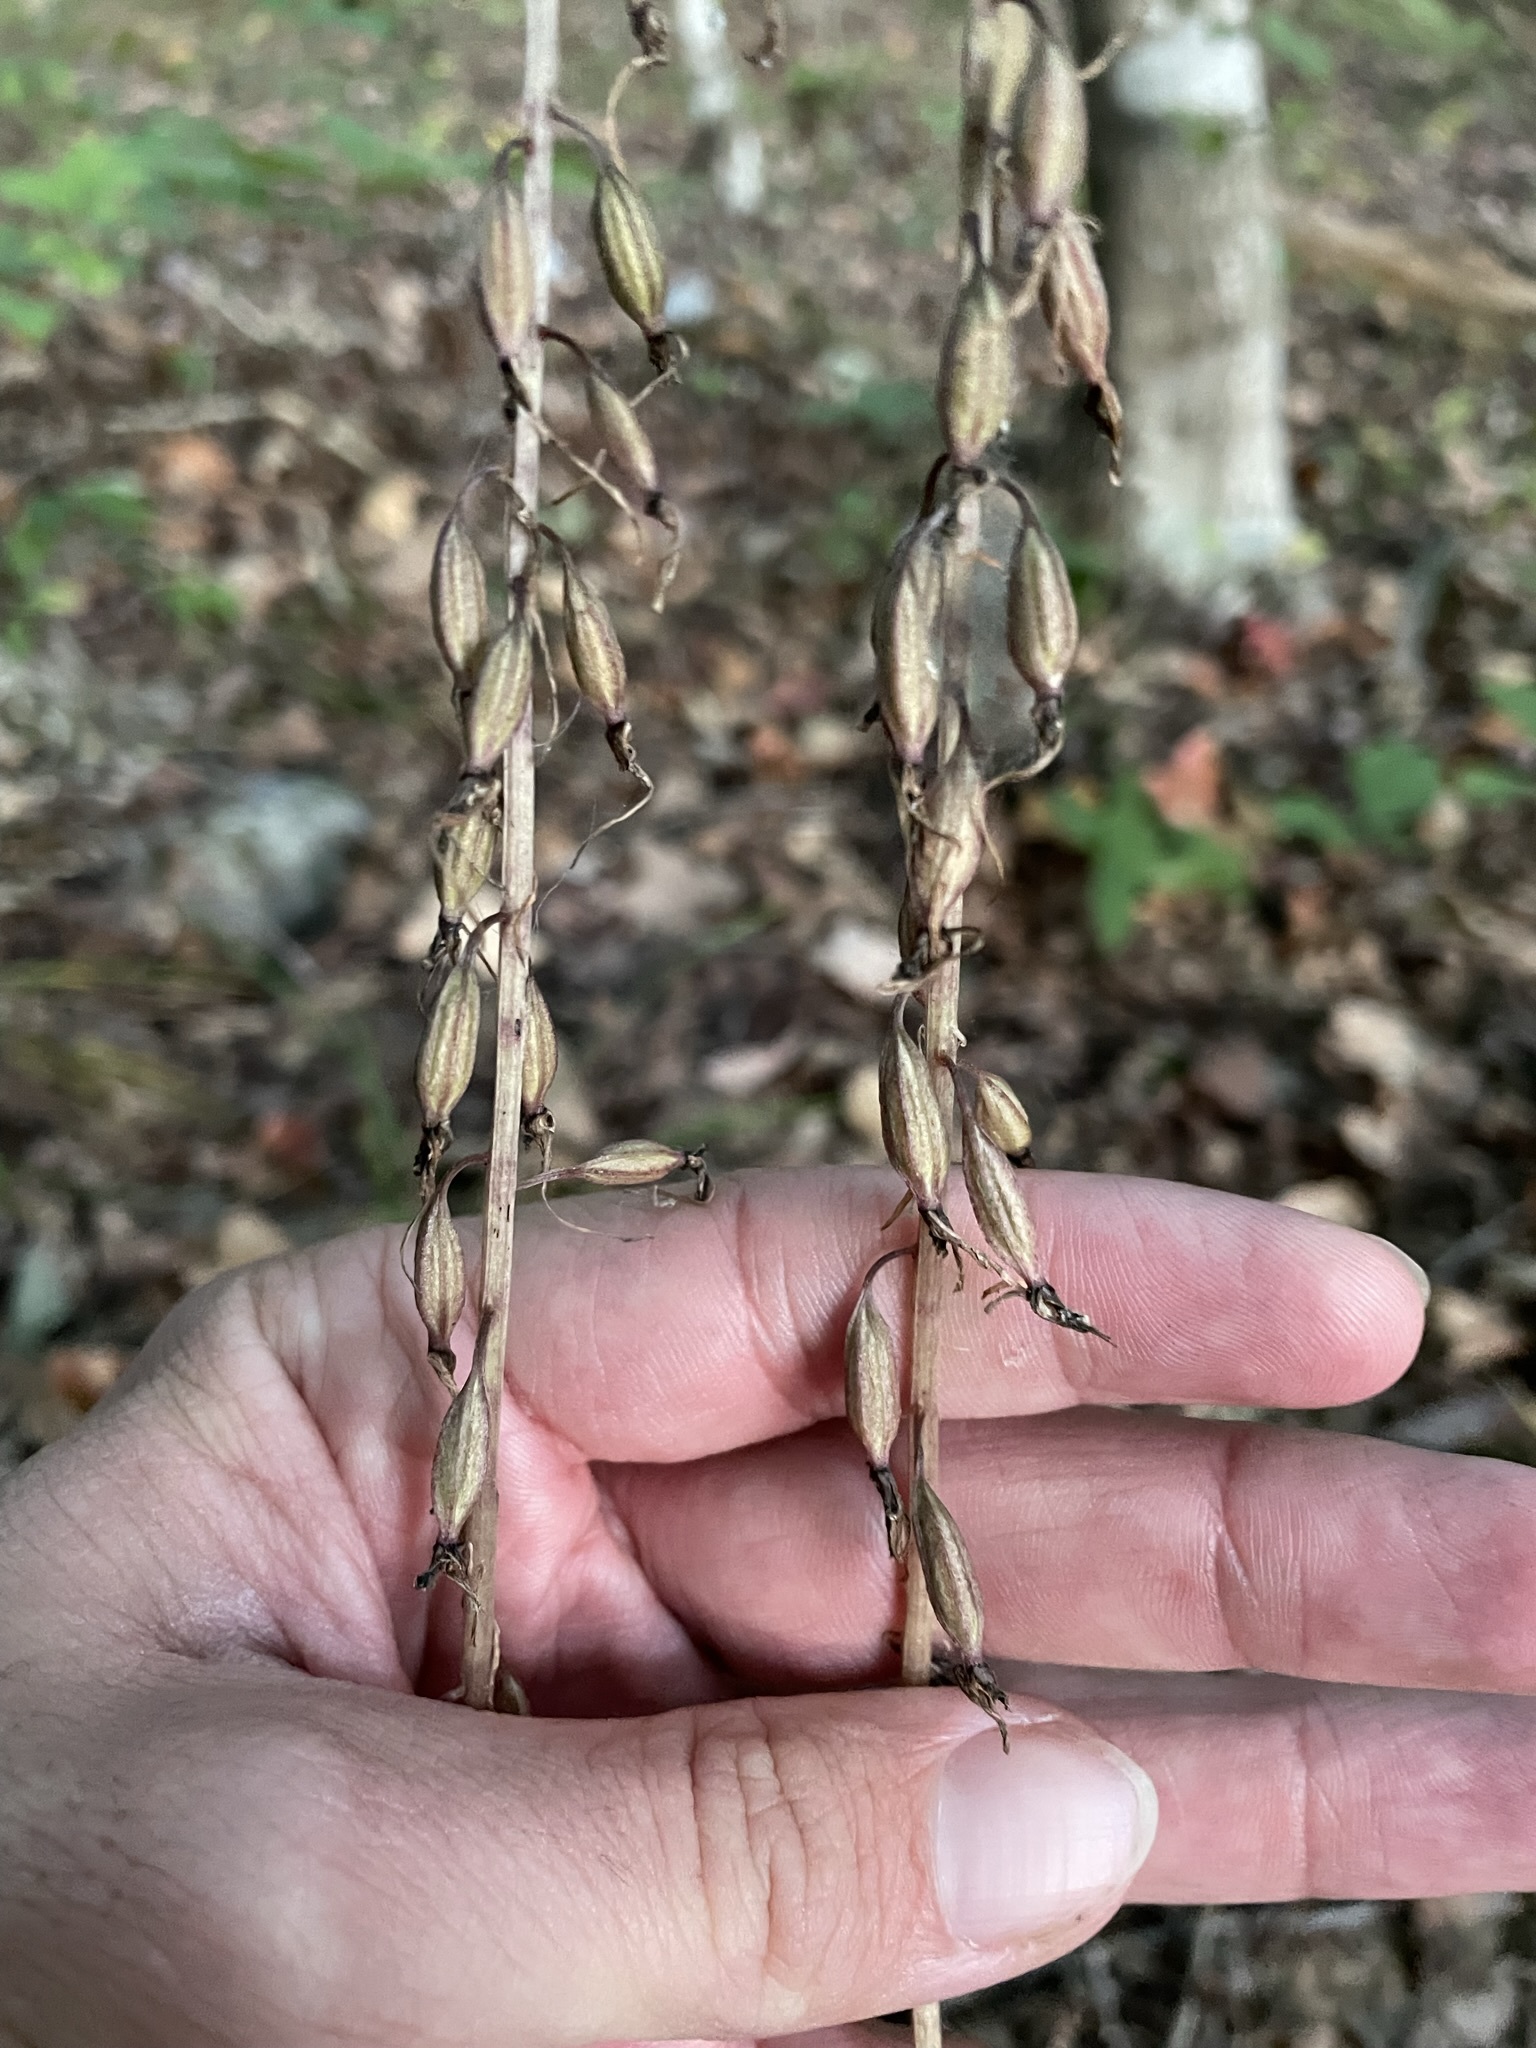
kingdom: Plantae
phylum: Tracheophyta
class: Liliopsida
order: Asparagales
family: Orchidaceae
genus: Tipularia
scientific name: Tipularia discolor
